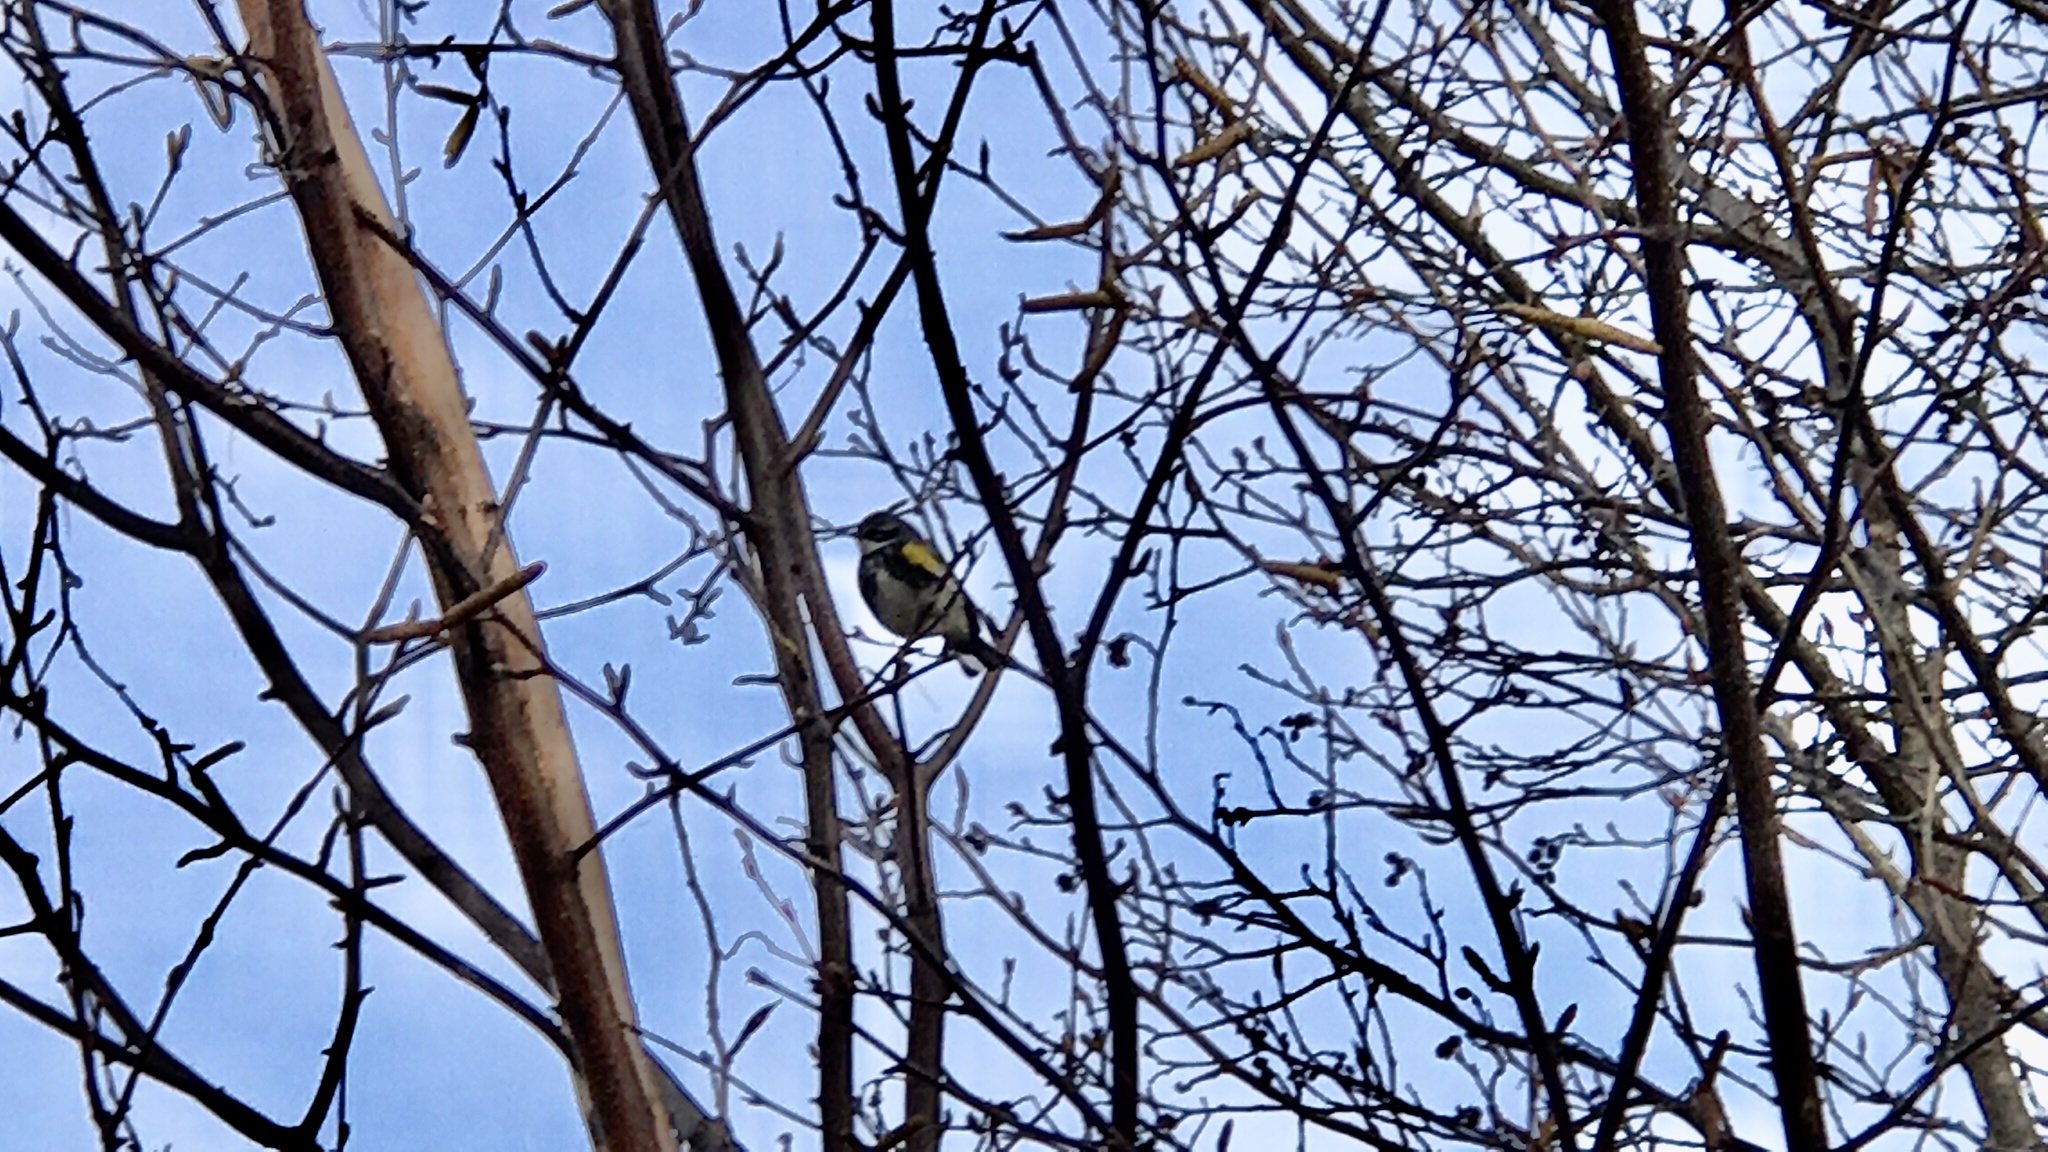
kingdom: Animalia
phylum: Chordata
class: Aves
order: Passeriformes
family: Parulidae
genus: Setophaga
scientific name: Setophaga coronata
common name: Myrtle warbler
